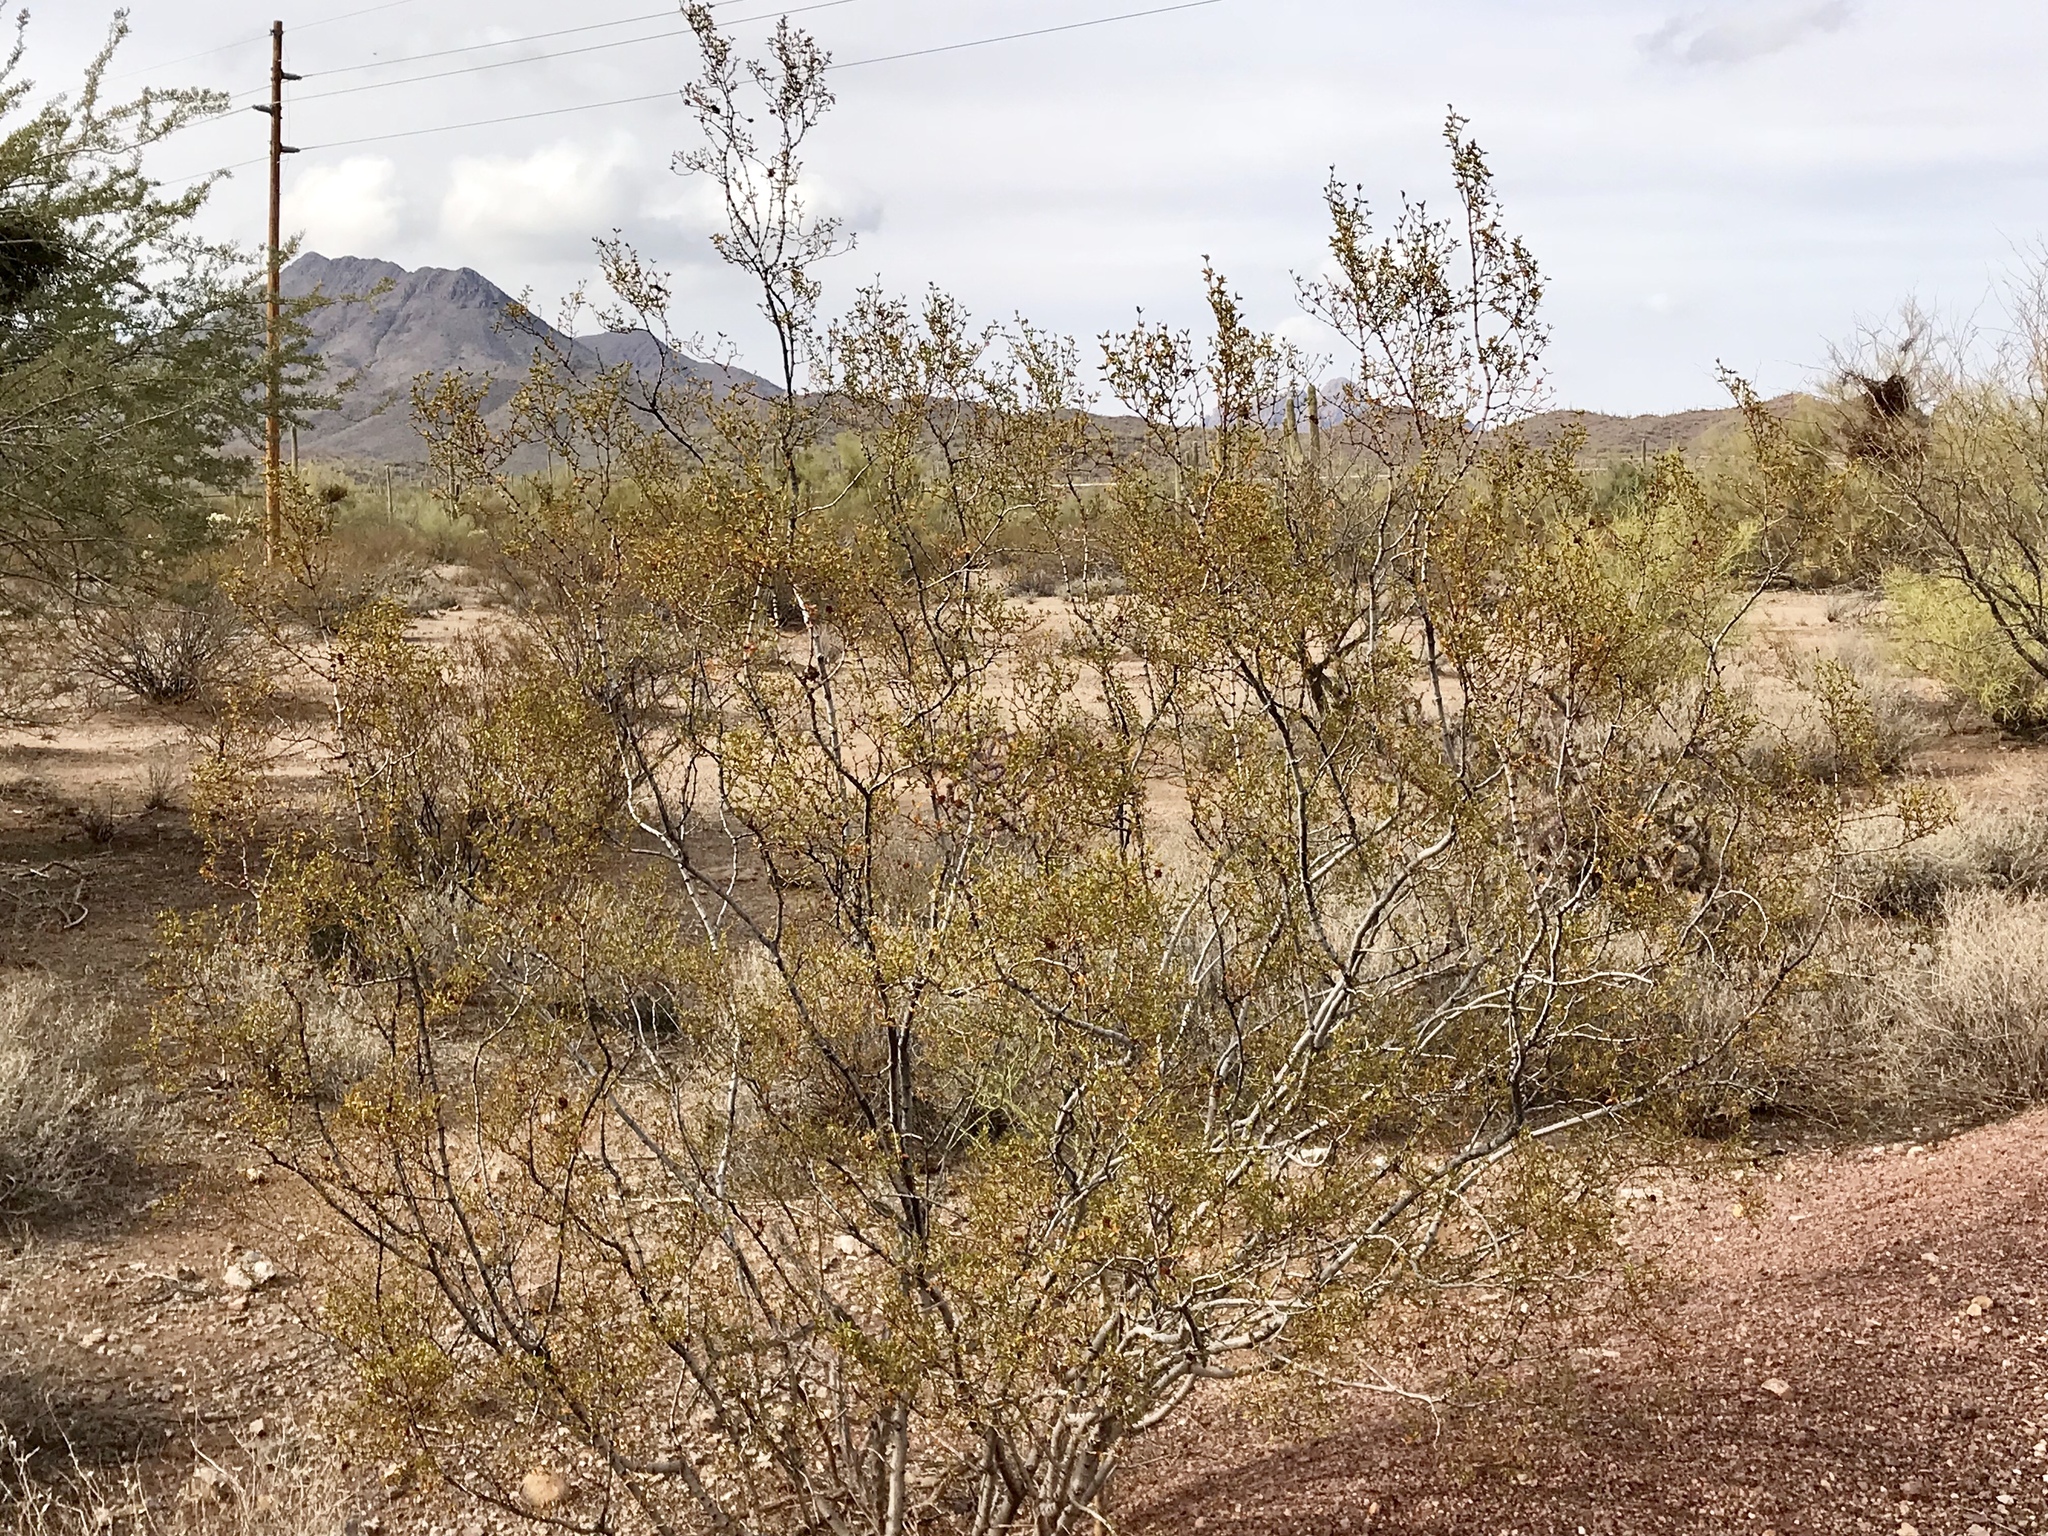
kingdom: Plantae
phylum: Tracheophyta
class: Magnoliopsida
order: Zygophyllales
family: Zygophyllaceae
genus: Larrea
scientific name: Larrea tridentata
